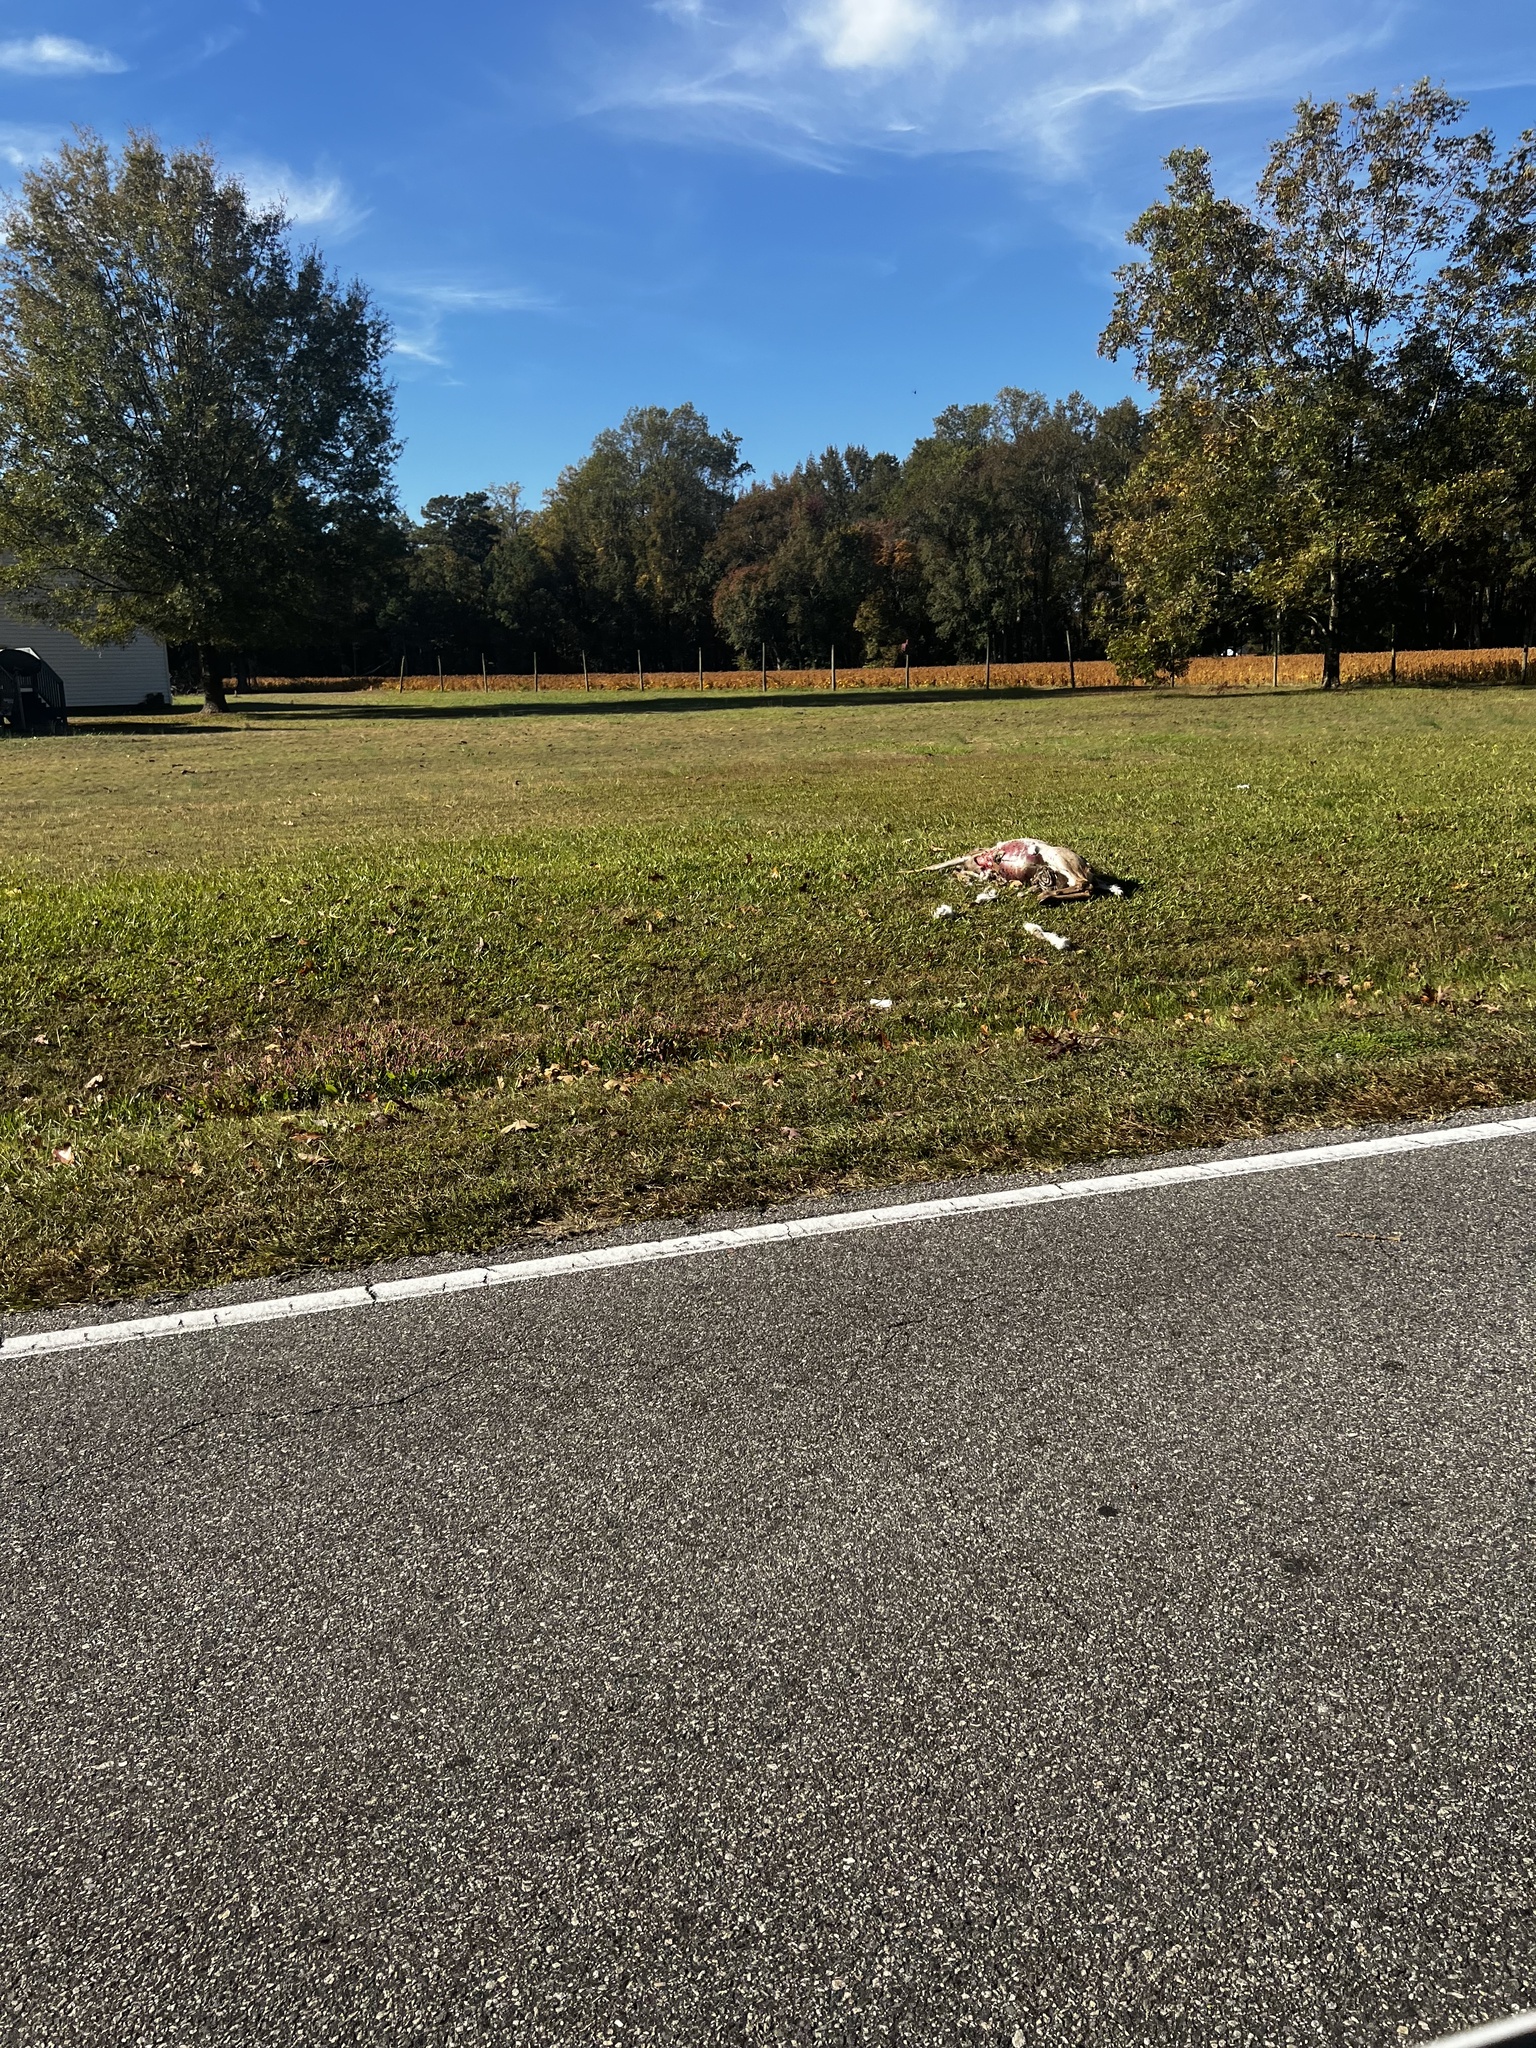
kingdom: Animalia
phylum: Chordata
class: Mammalia
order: Artiodactyla
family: Cervidae
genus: Odocoileus
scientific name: Odocoileus virginianus
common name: White-tailed deer
